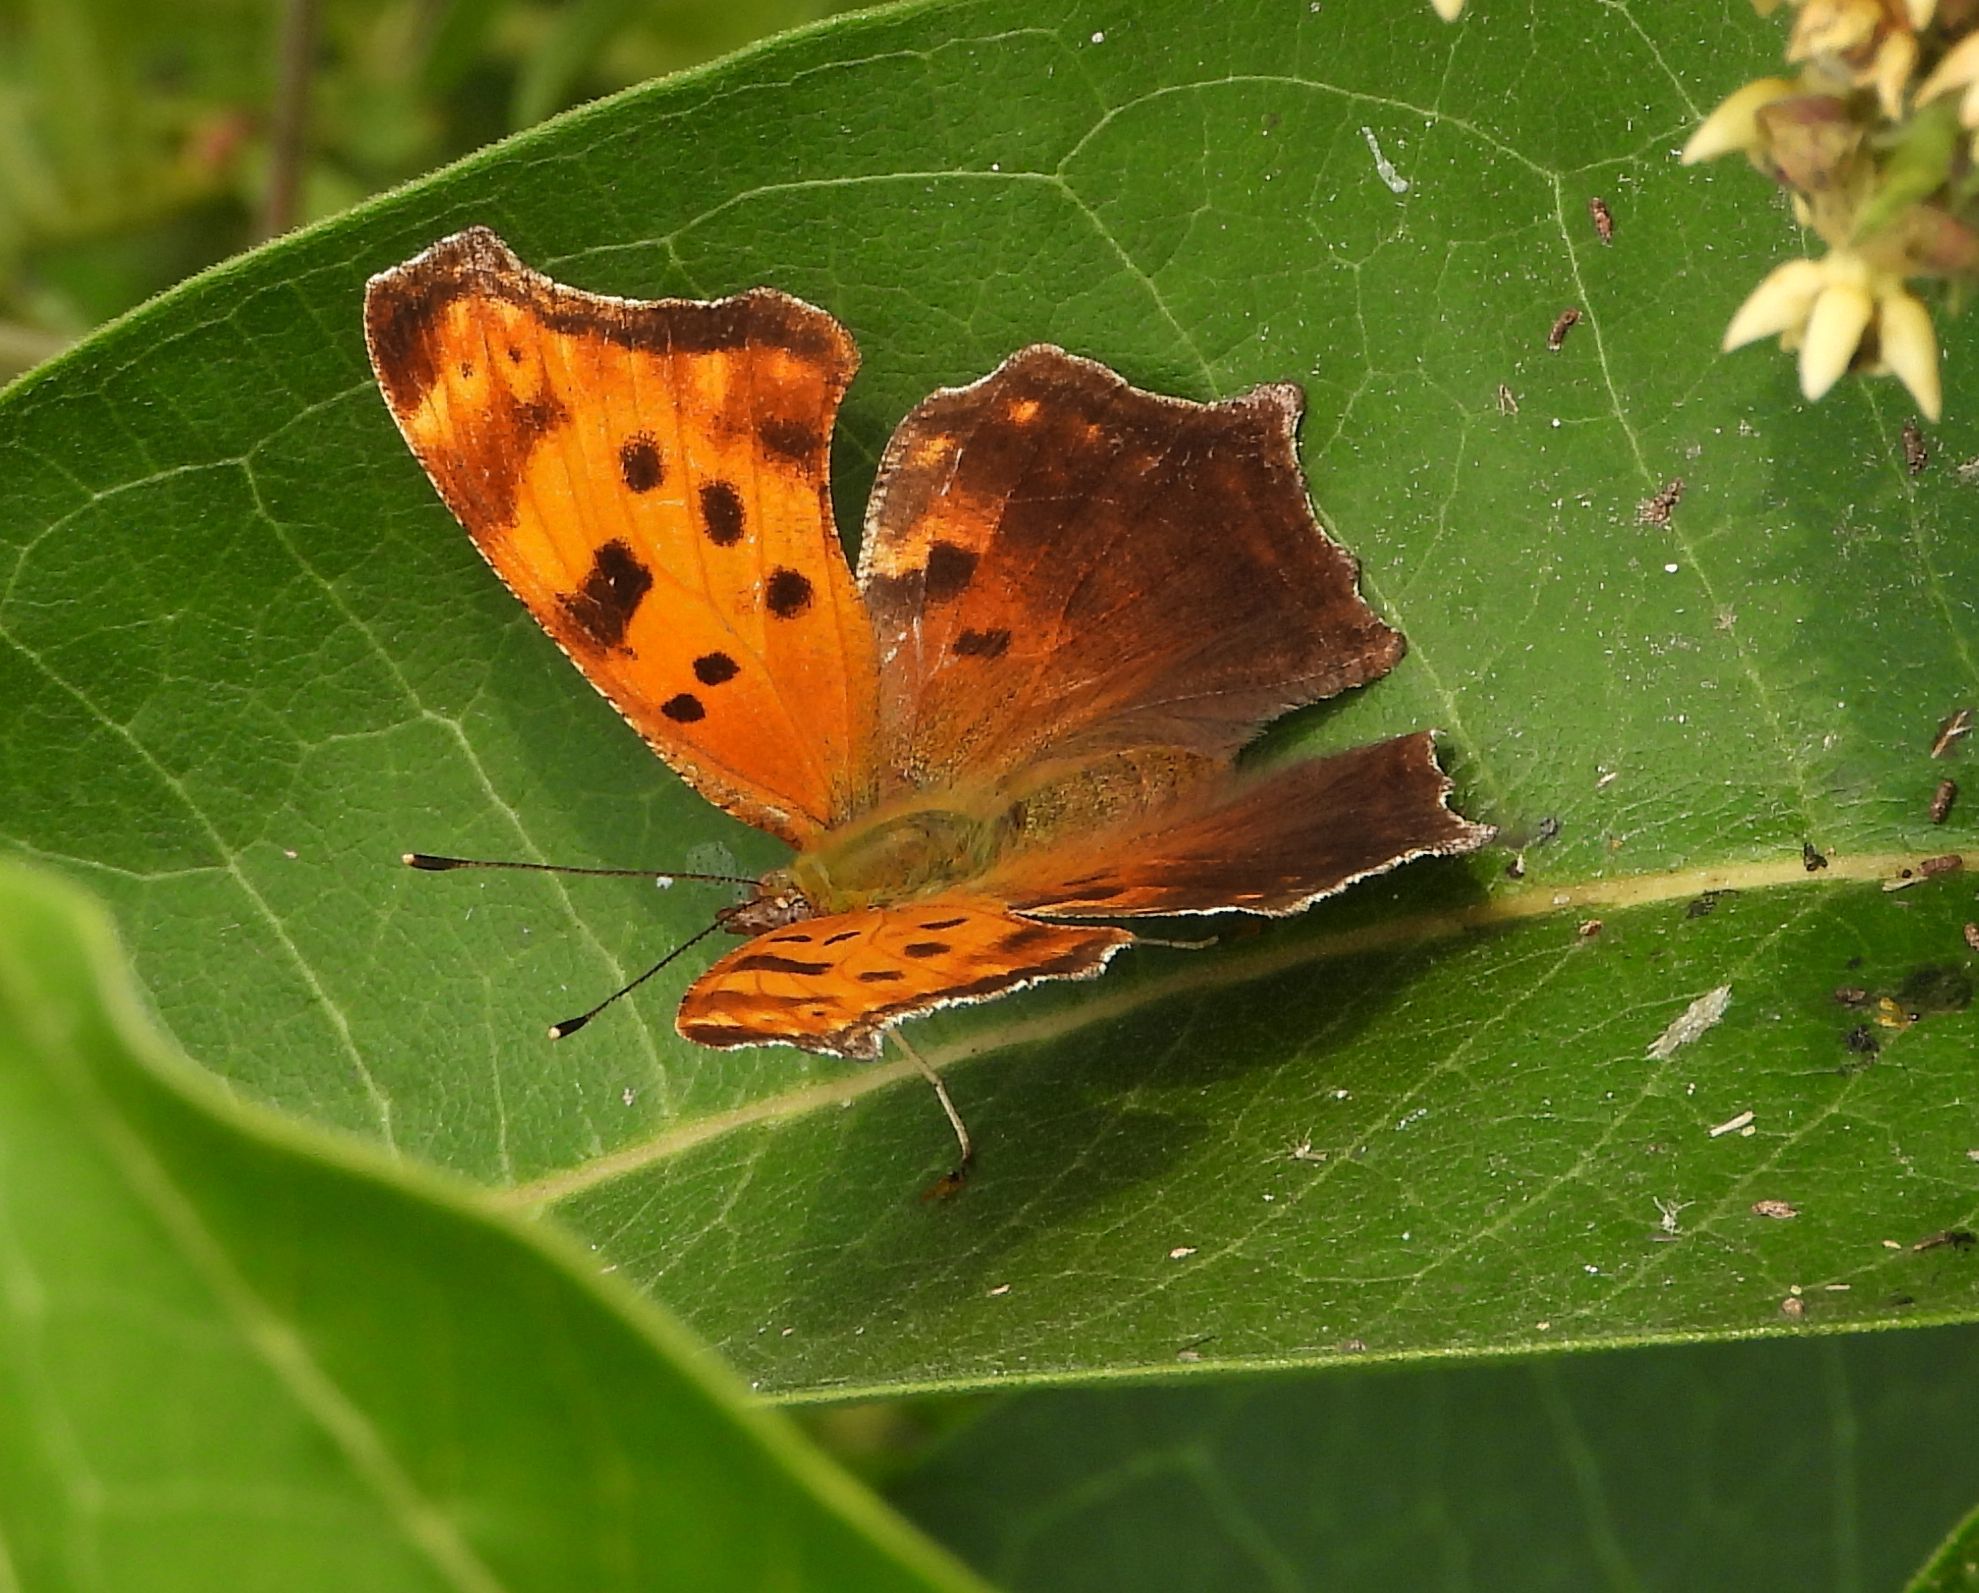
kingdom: Animalia
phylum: Arthropoda
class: Insecta
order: Lepidoptera
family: Nymphalidae
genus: Polygonia
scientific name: Polygonia comma
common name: Eastern comma
